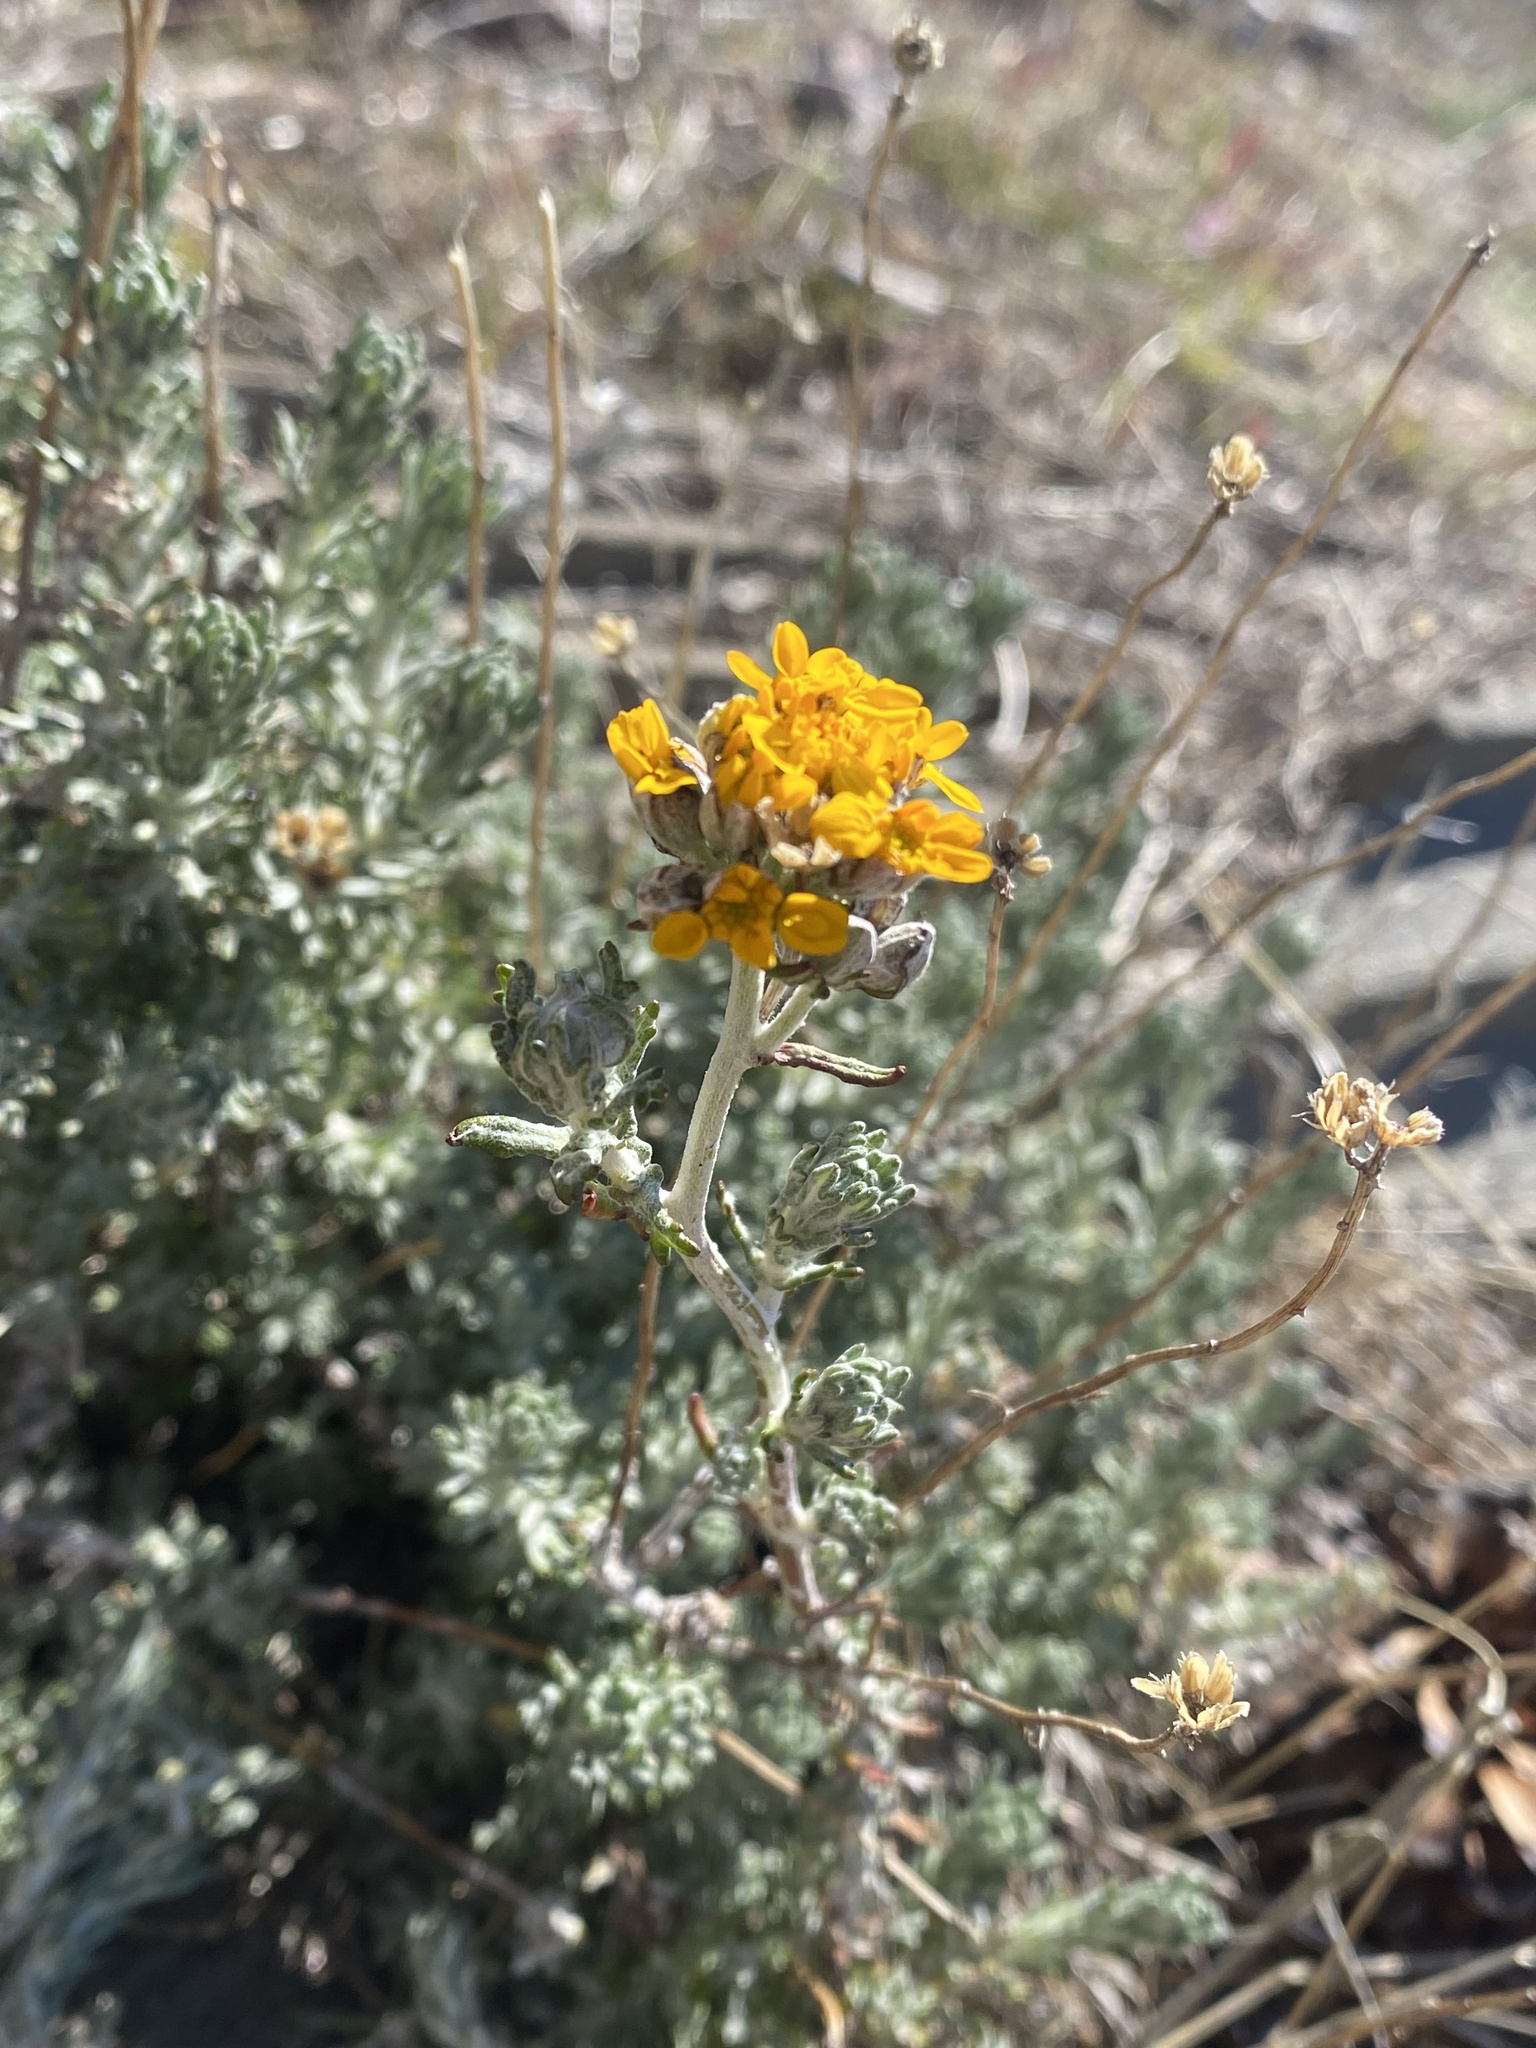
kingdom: Plantae
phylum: Tracheophyta
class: Magnoliopsida
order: Asterales
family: Asteraceae
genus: Eriophyllum
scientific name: Eriophyllum confertiflorum
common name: Golden-yarrow
